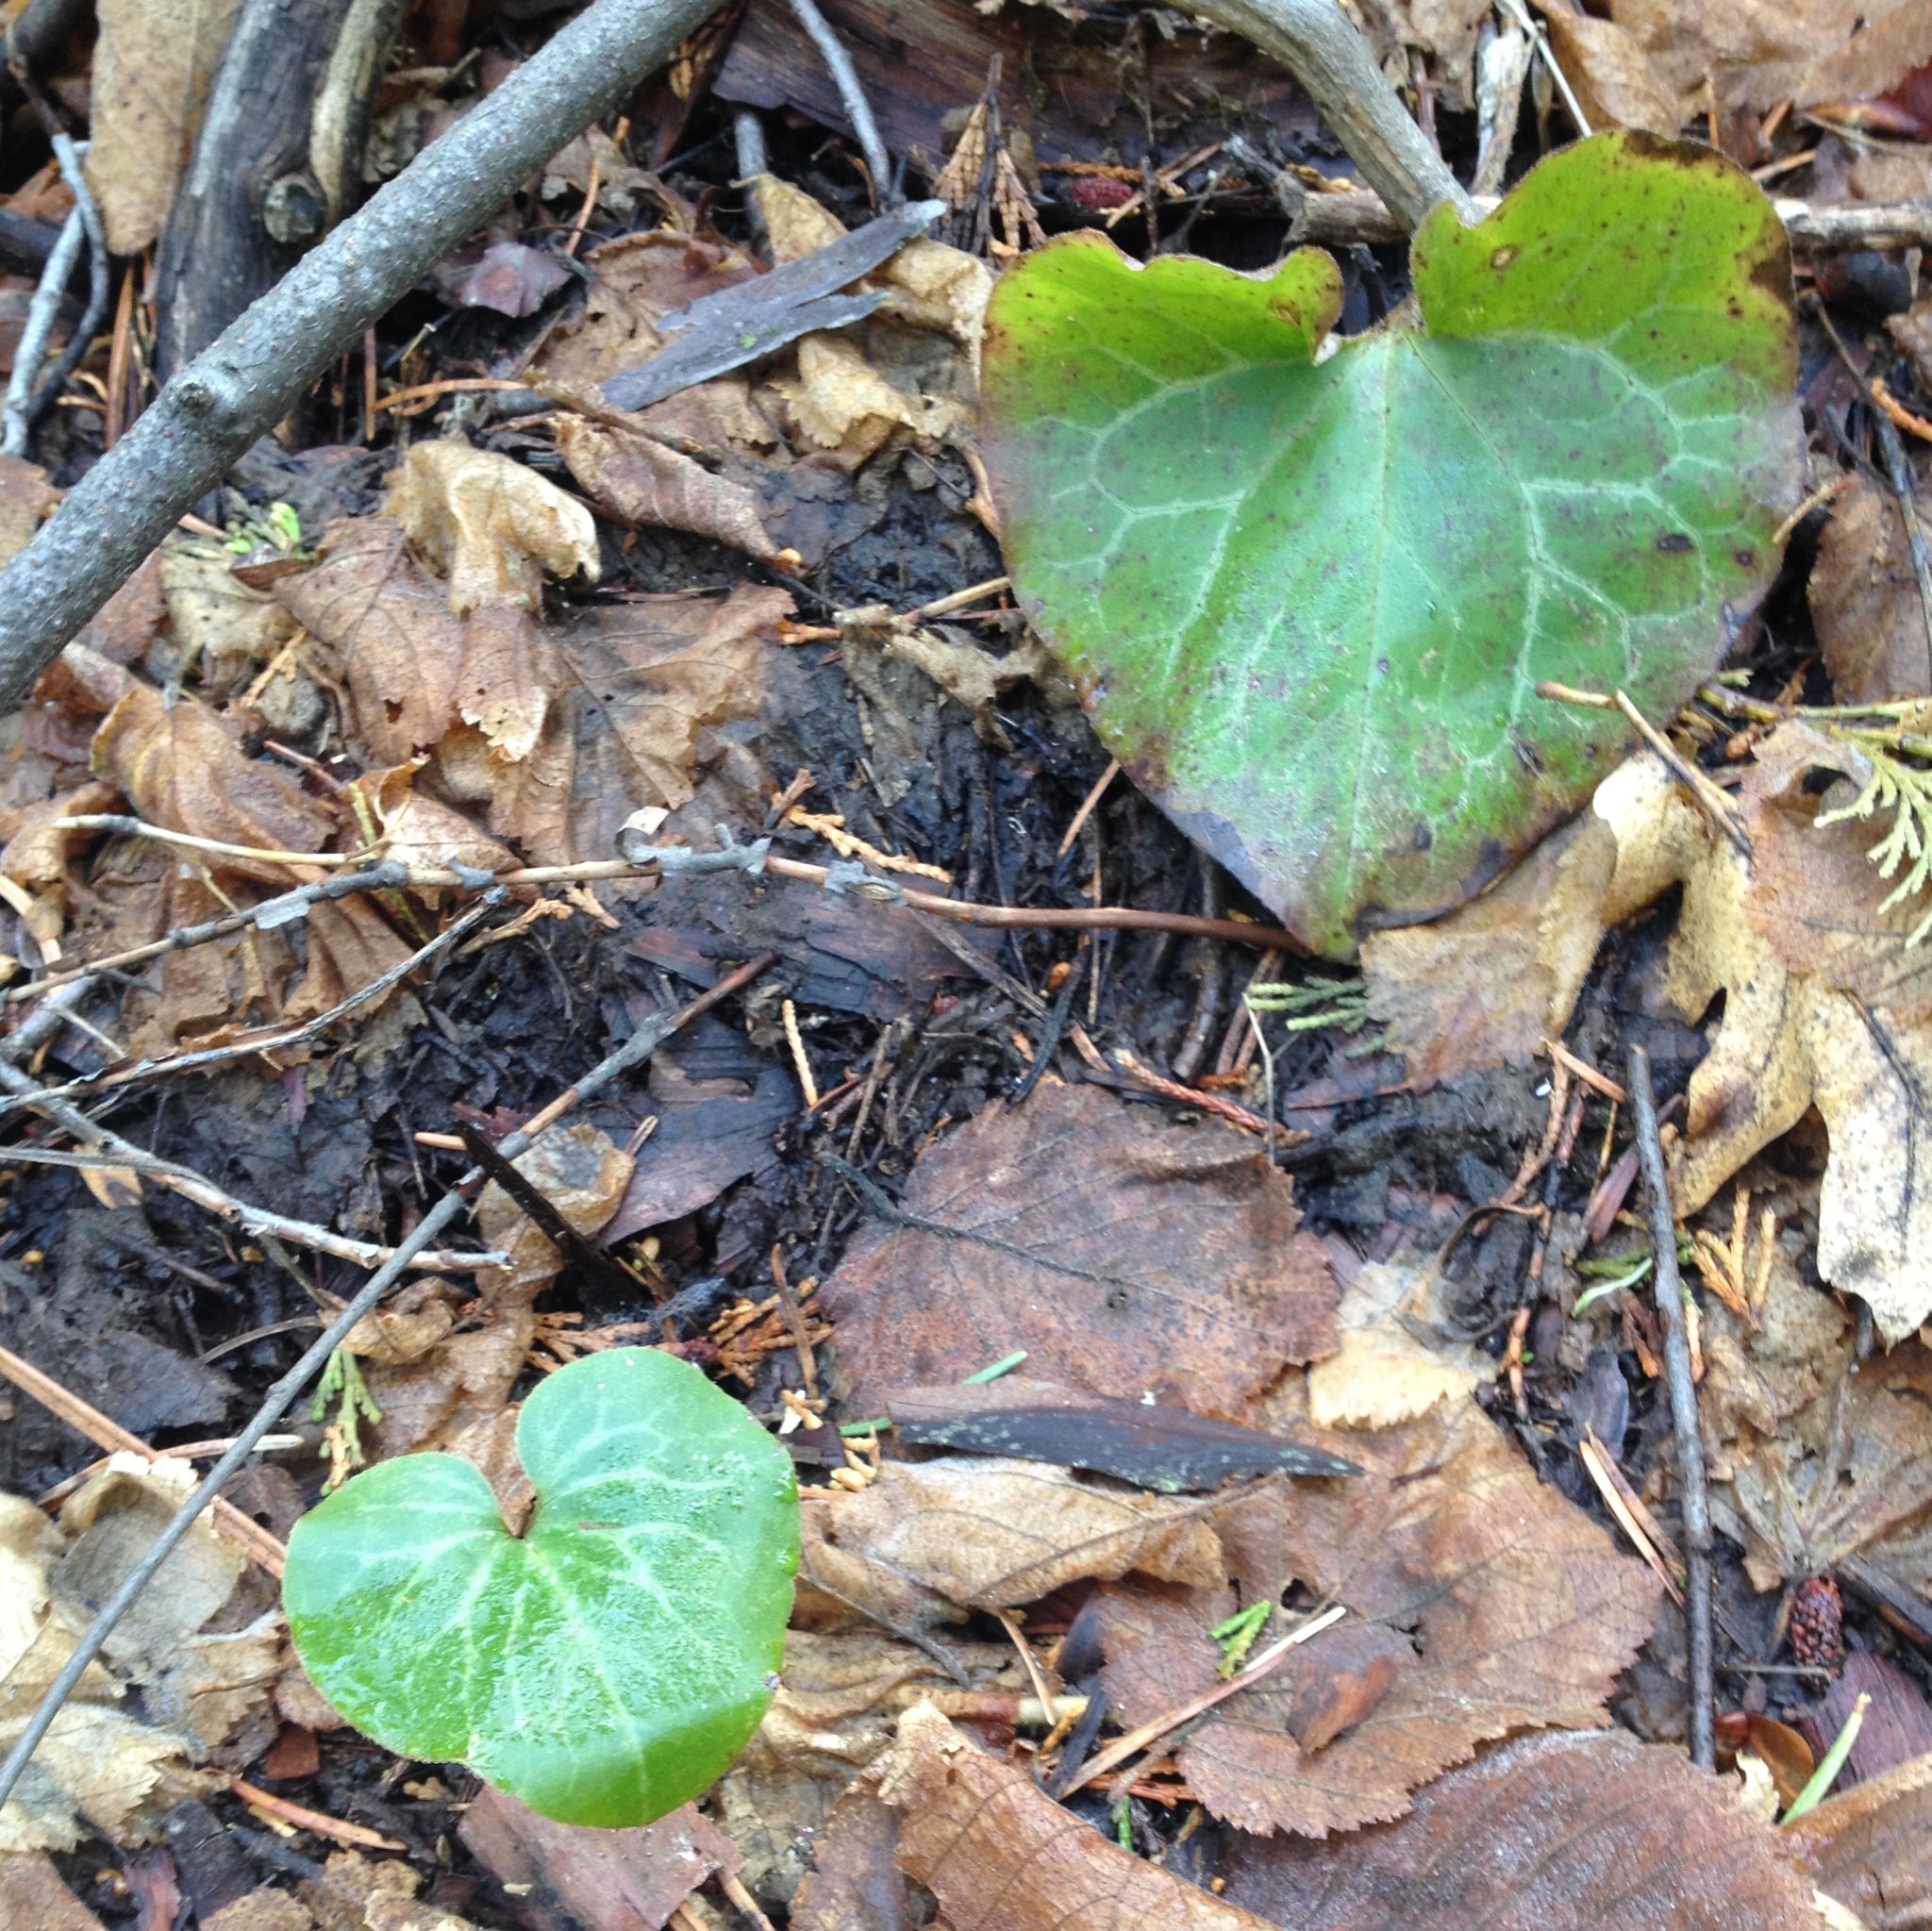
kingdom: Plantae
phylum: Tracheophyta
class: Magnoliopsida
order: Piperales
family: Aristolochiaceae
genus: Asarum
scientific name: Asarum hartwegii
